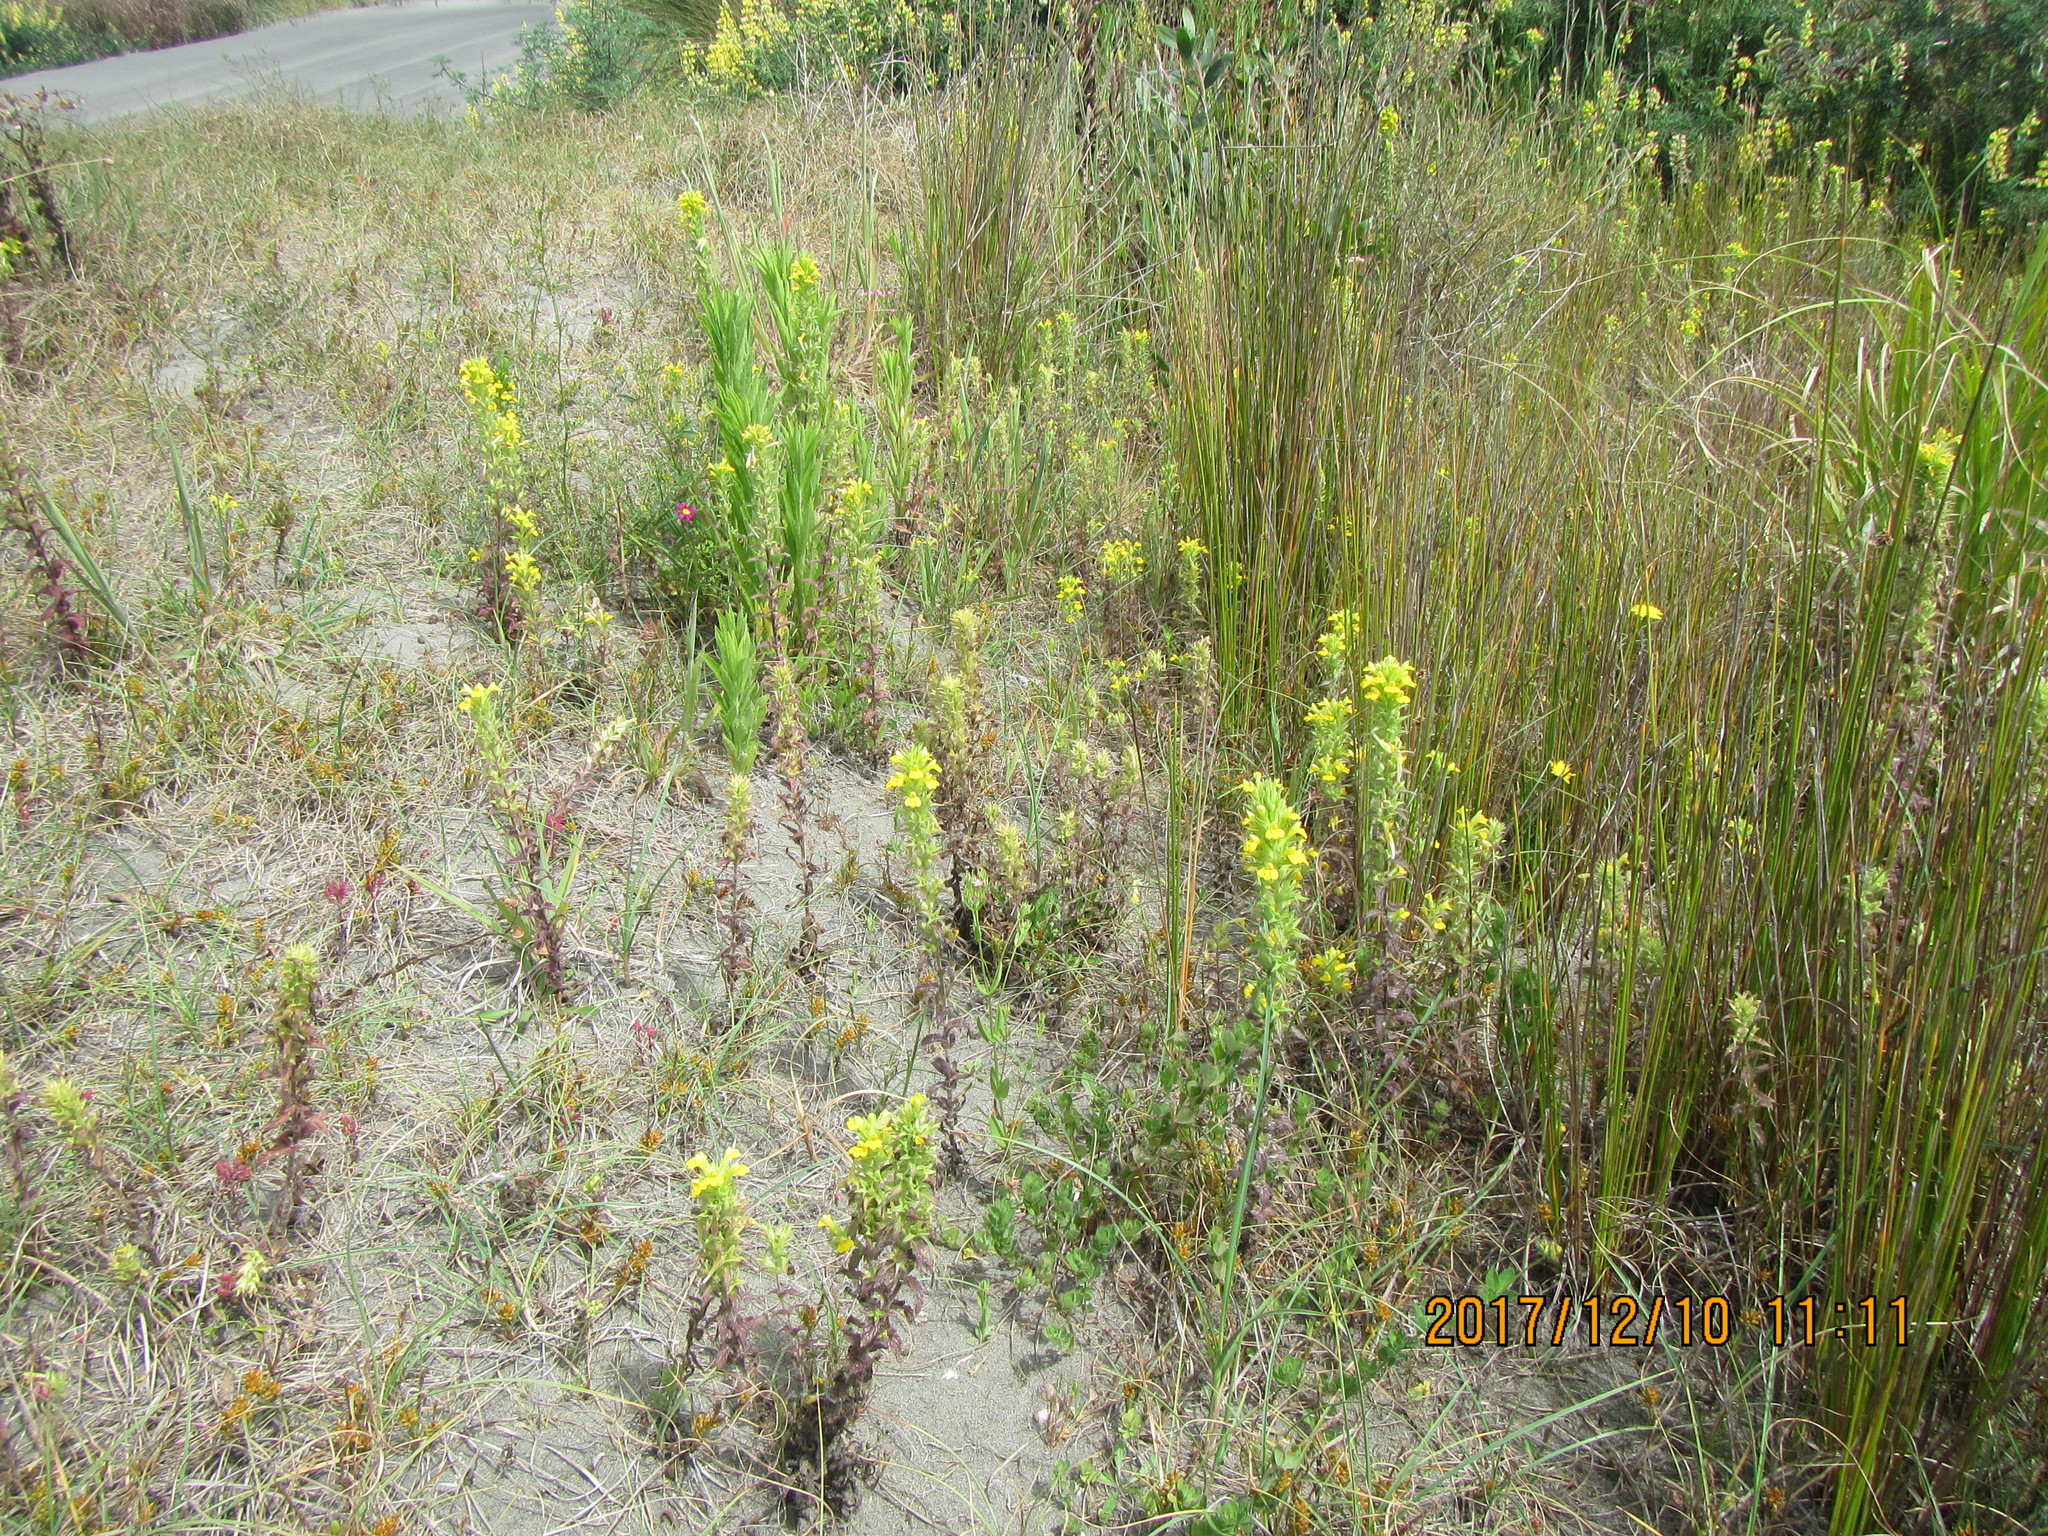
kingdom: Plantae
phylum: Tracheophyta
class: Magnoliopsida
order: Lamiales
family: Orobanchaceae
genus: Bellardia
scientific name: Bellardia viscosa
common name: Sticky parentucellia
